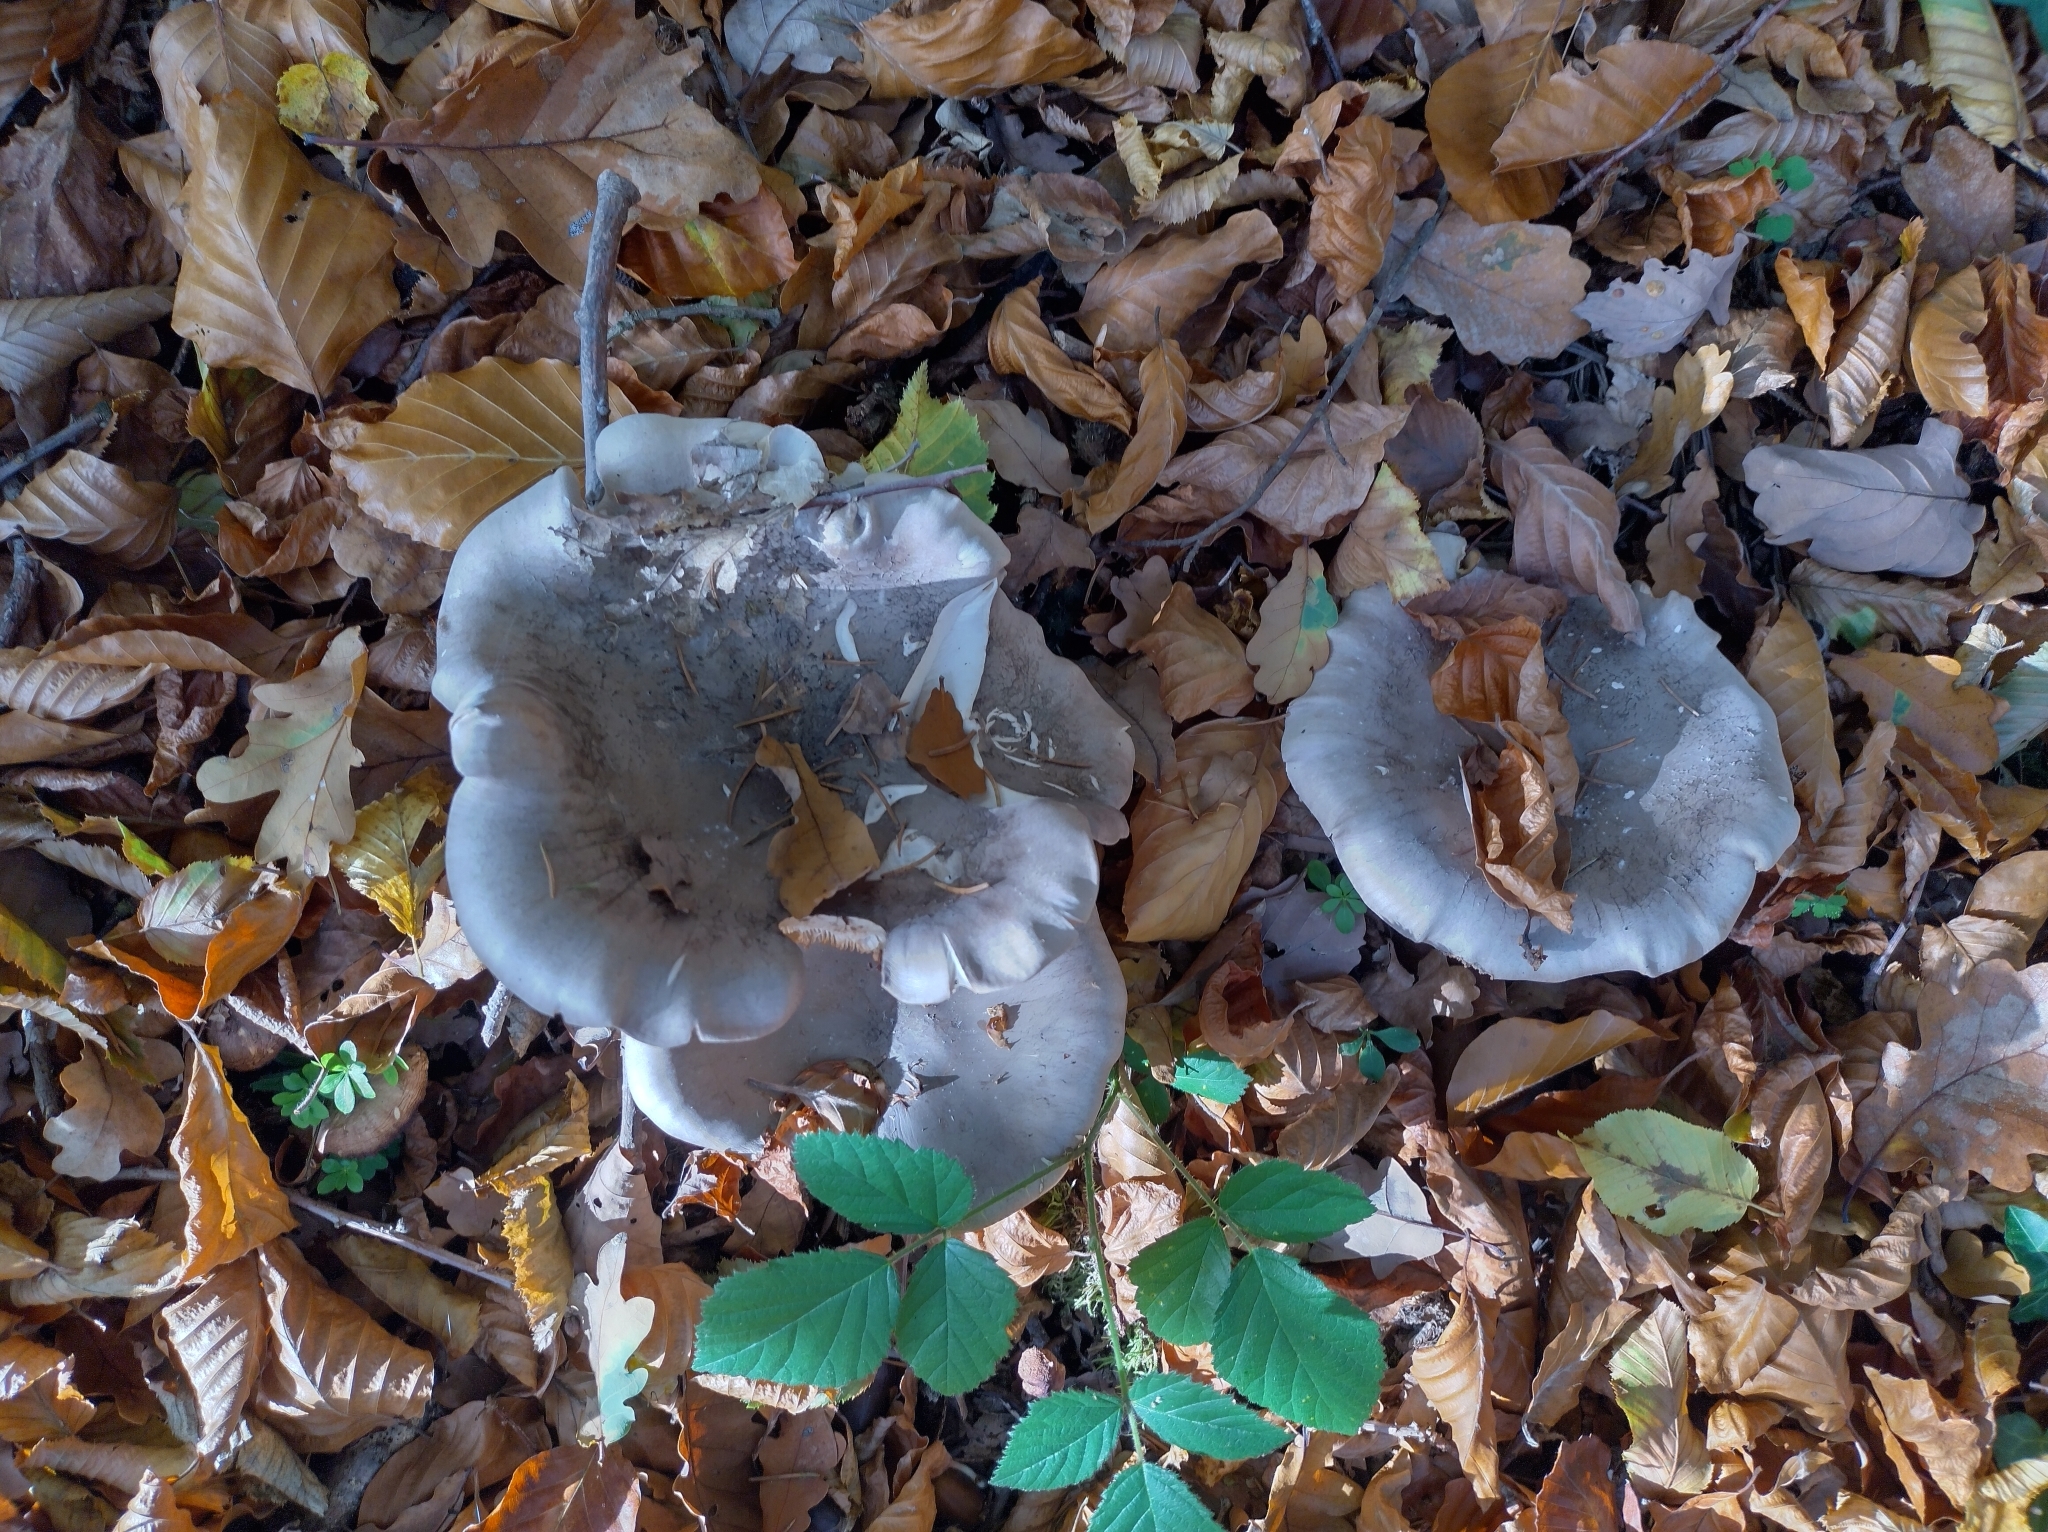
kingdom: Fungi
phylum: Basidiomycota
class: Agaricomycetes
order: Agaricales
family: Tricholomataceae
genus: Clitocybe
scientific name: Clitocybe nebularis
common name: Clouded agaric
